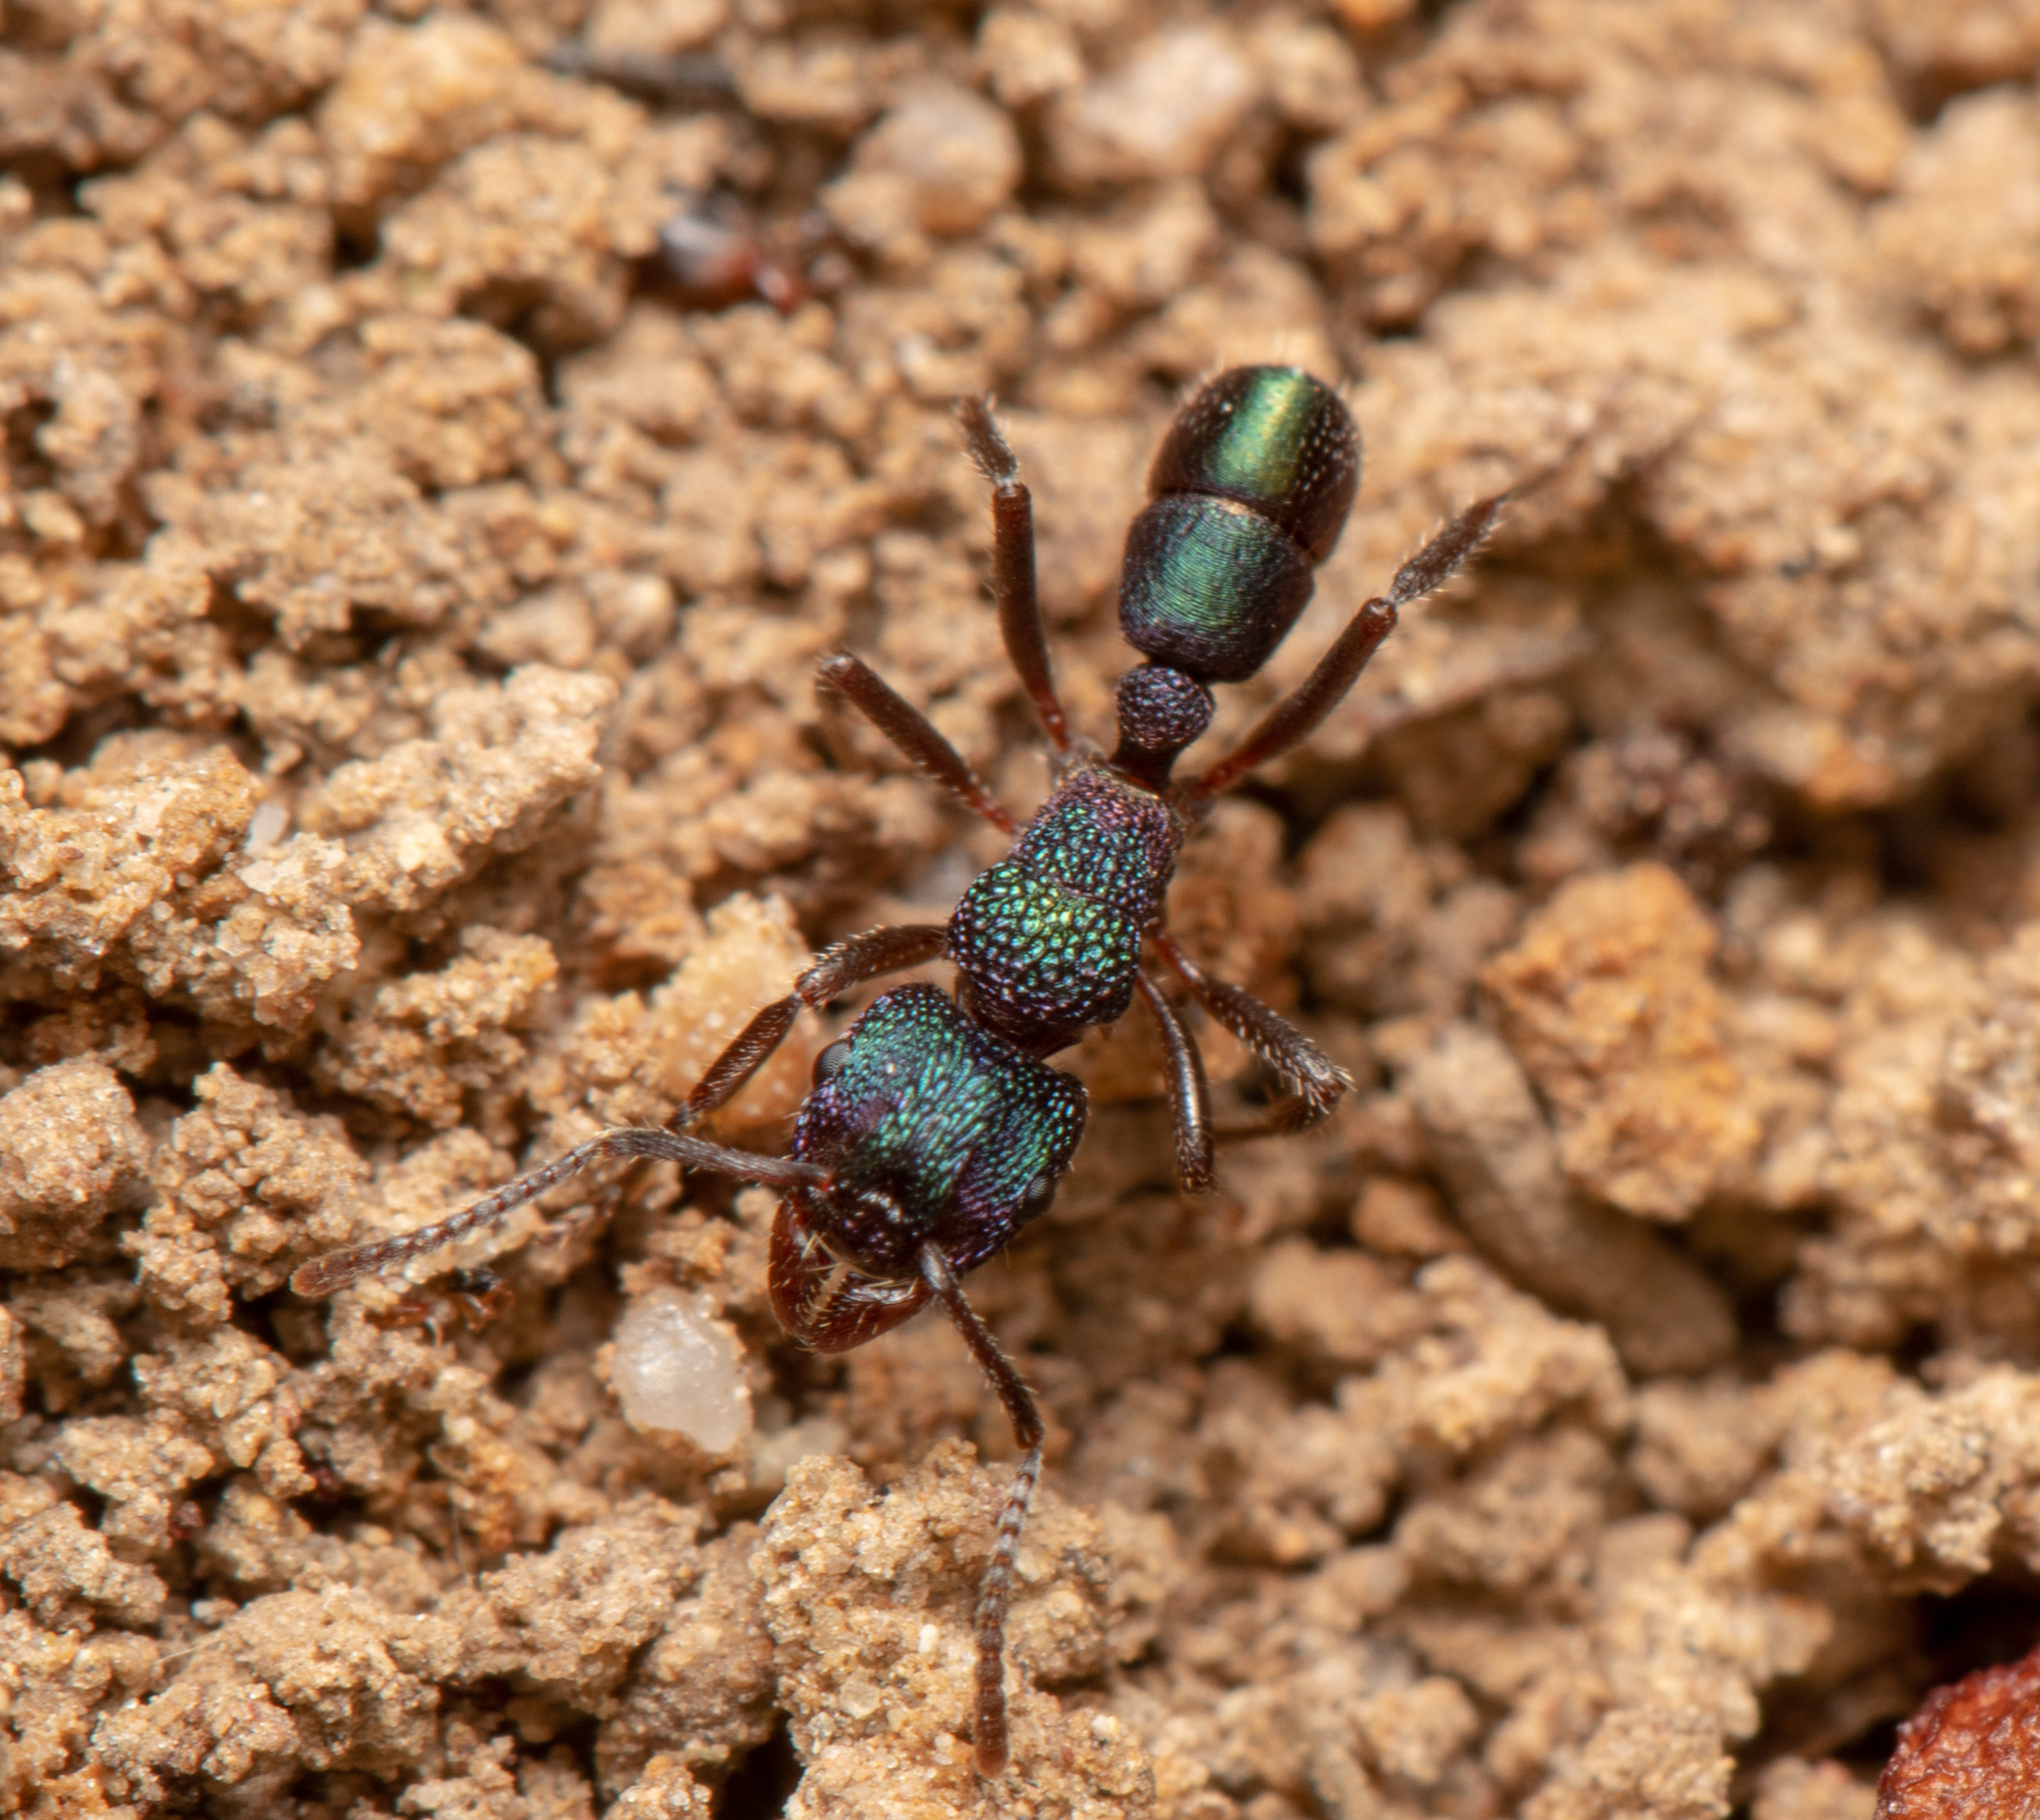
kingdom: Animalia
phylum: Arthropoda
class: Insecta
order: Hymenoptera
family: Formicidae
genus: Rhytidoponera
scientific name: Rhytidoponera metallica
